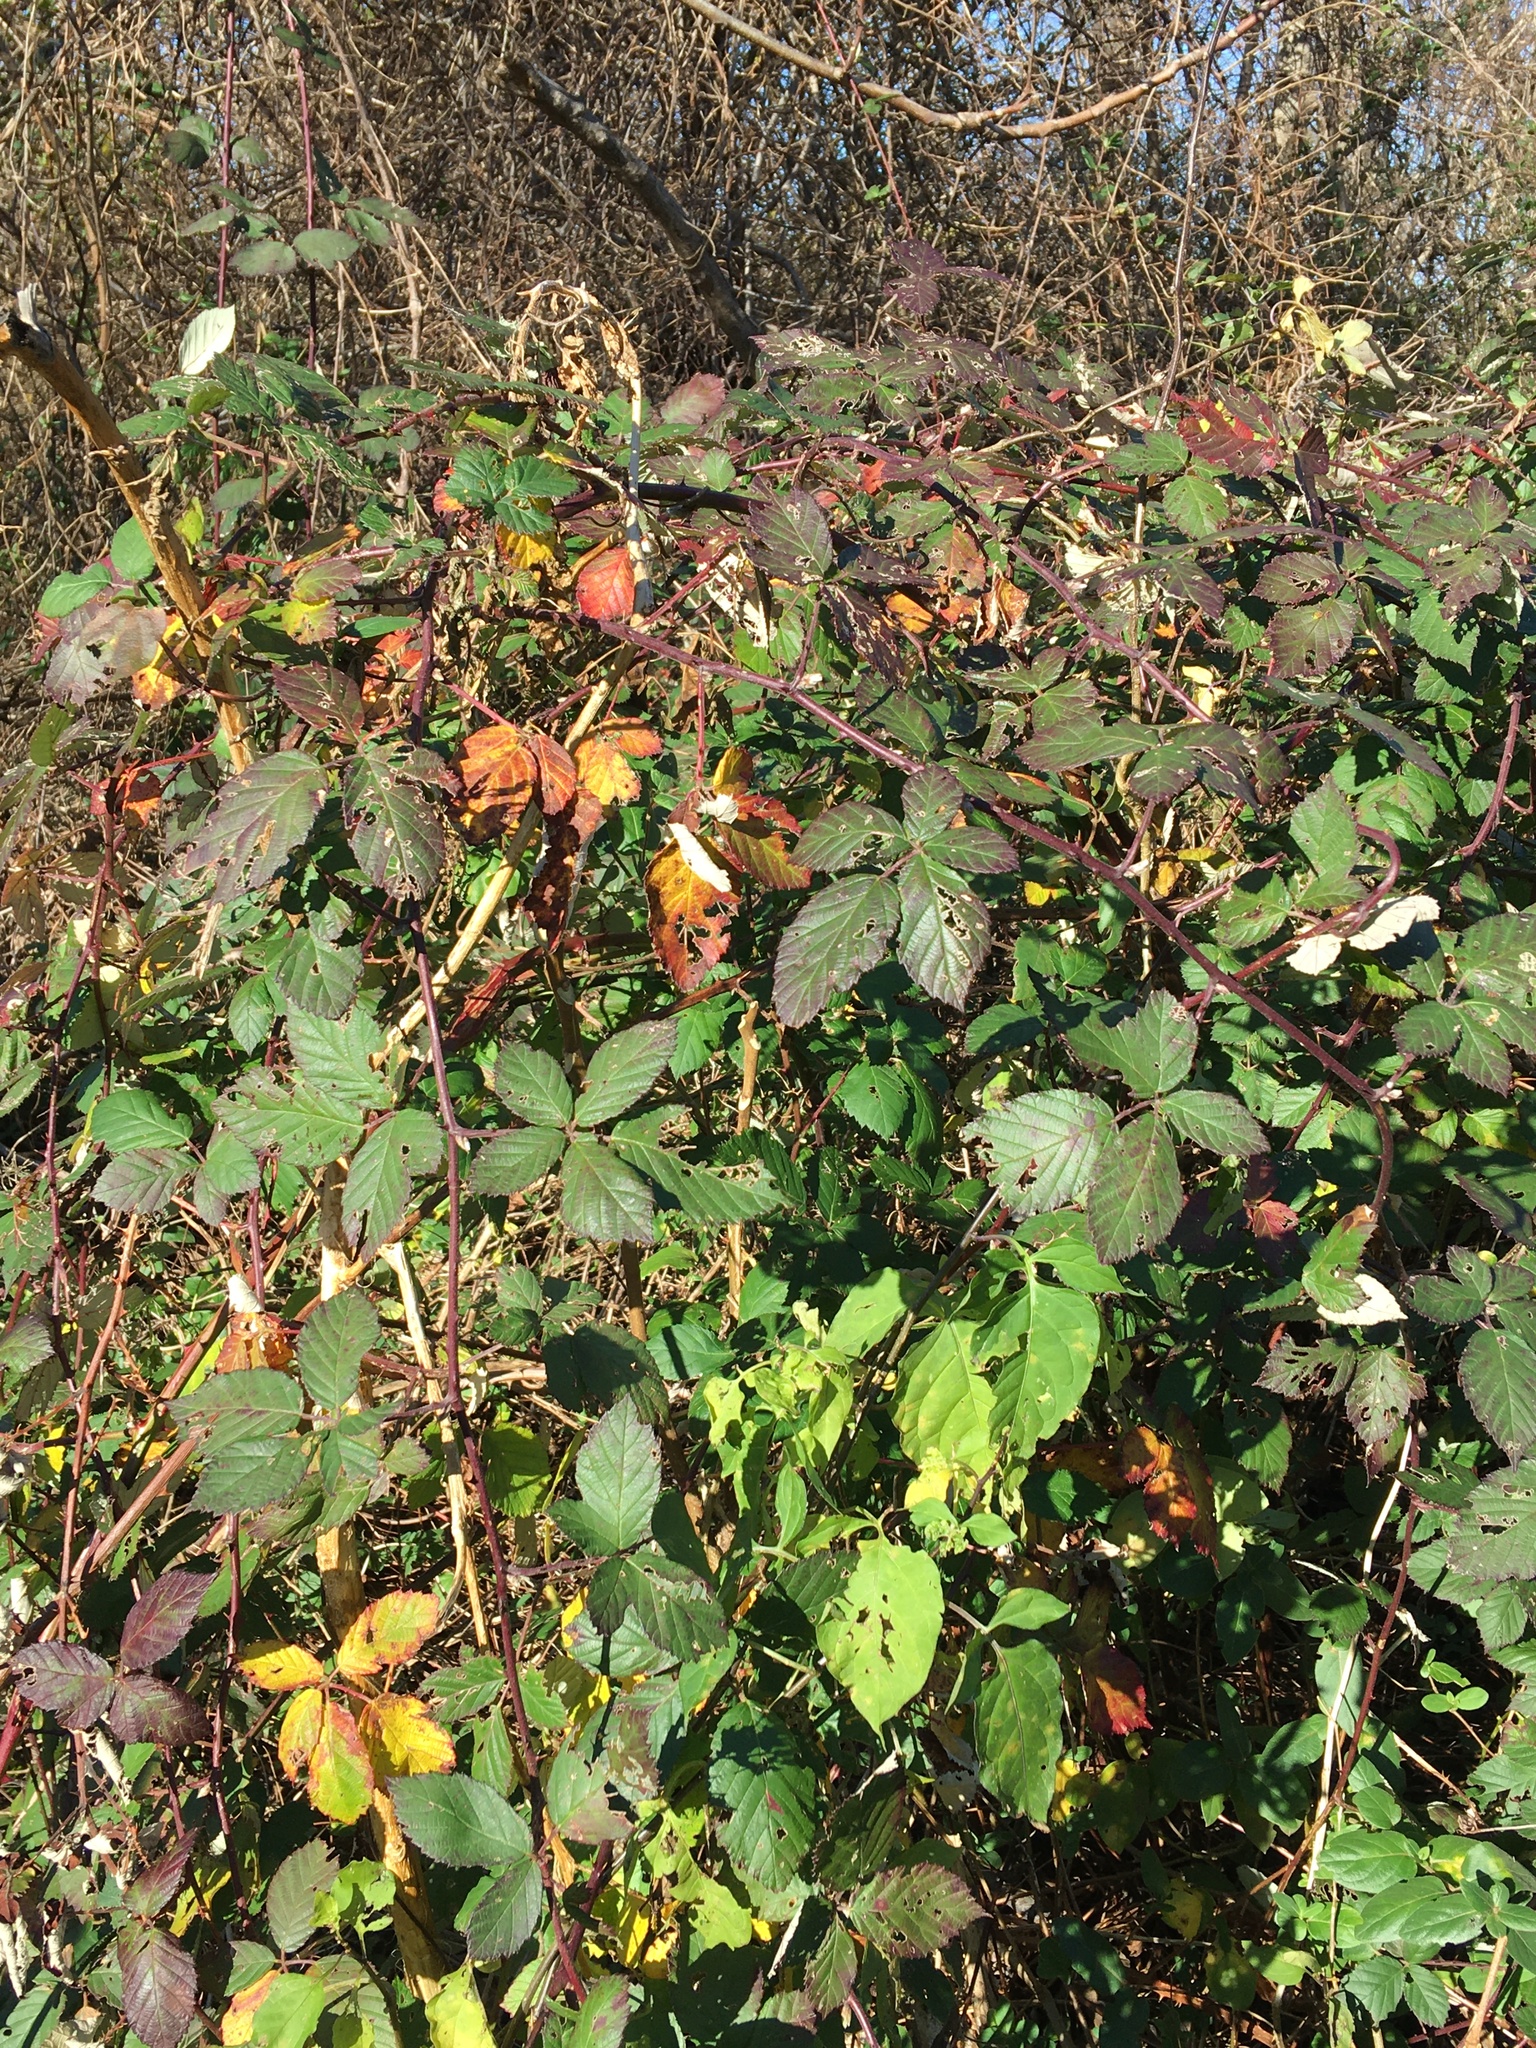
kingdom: Plantae
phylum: Tracheophyta
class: Magnoliopsida
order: Rosales
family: Rosaceae
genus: Rubus
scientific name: Rubus bifrons
